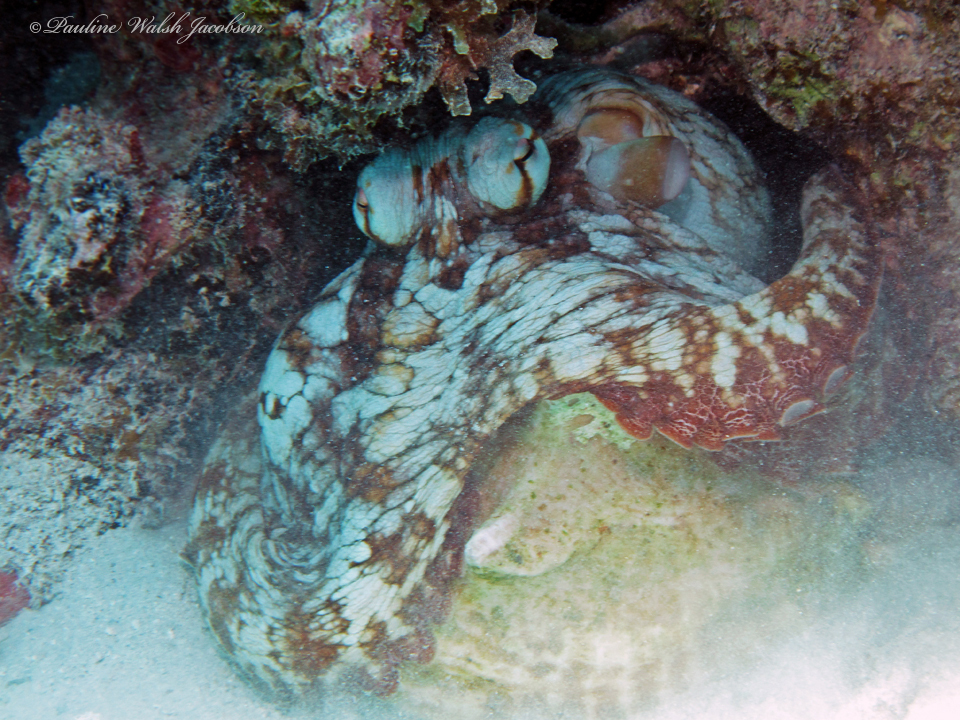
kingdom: Animalia
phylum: Mollusca
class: Cephalopoda
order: Octopoda
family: Octopodidae
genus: Octopus
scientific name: Octopus insularis
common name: Brazil reef octopus
